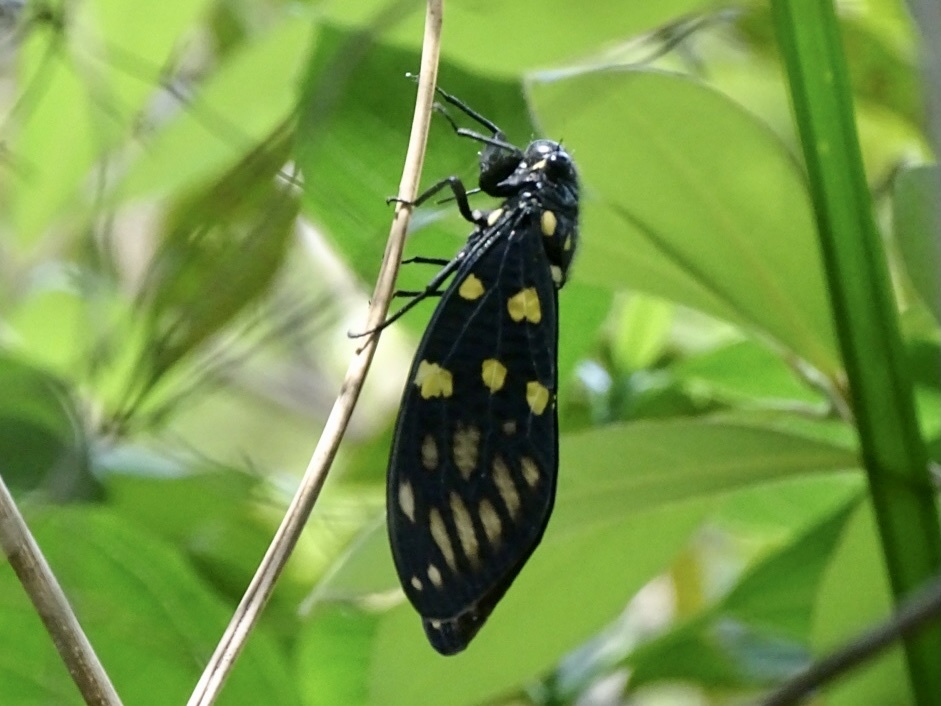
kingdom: Animalia
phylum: Arthropoda
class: Insecta
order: Hemiptera
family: Cicadidae
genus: Gaeana
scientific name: Gaeana maculata
